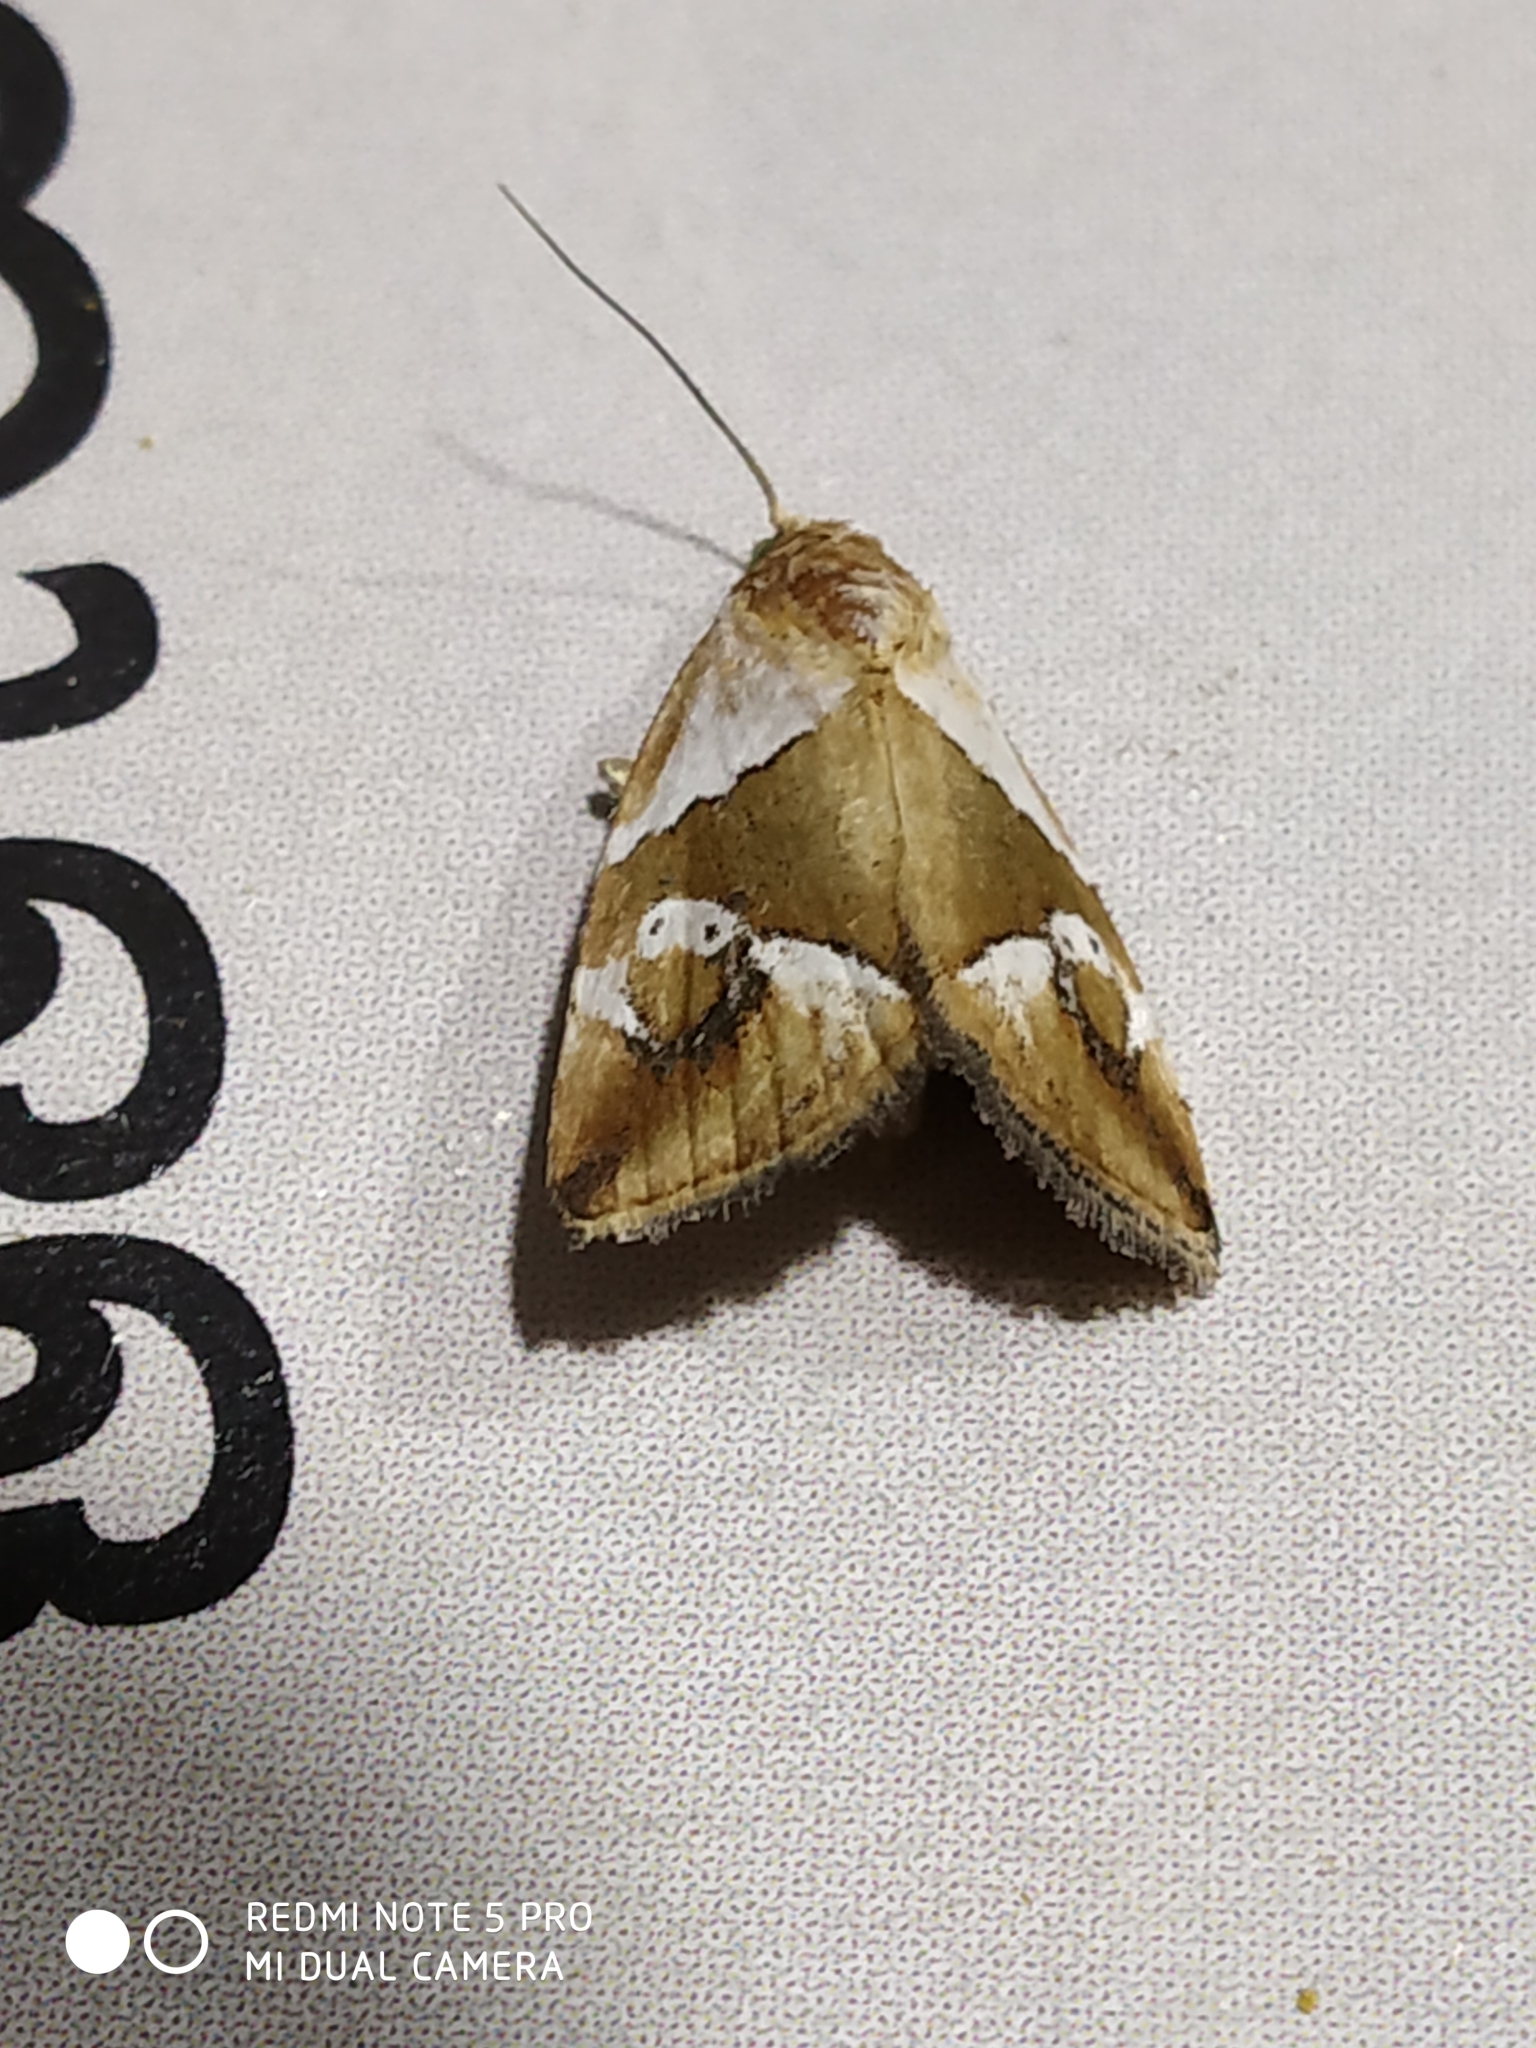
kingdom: Animalia
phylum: Arthropoda
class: Insecta
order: Lepidoptera
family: Noctuidae
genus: Maliattha
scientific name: Maliattha separata
